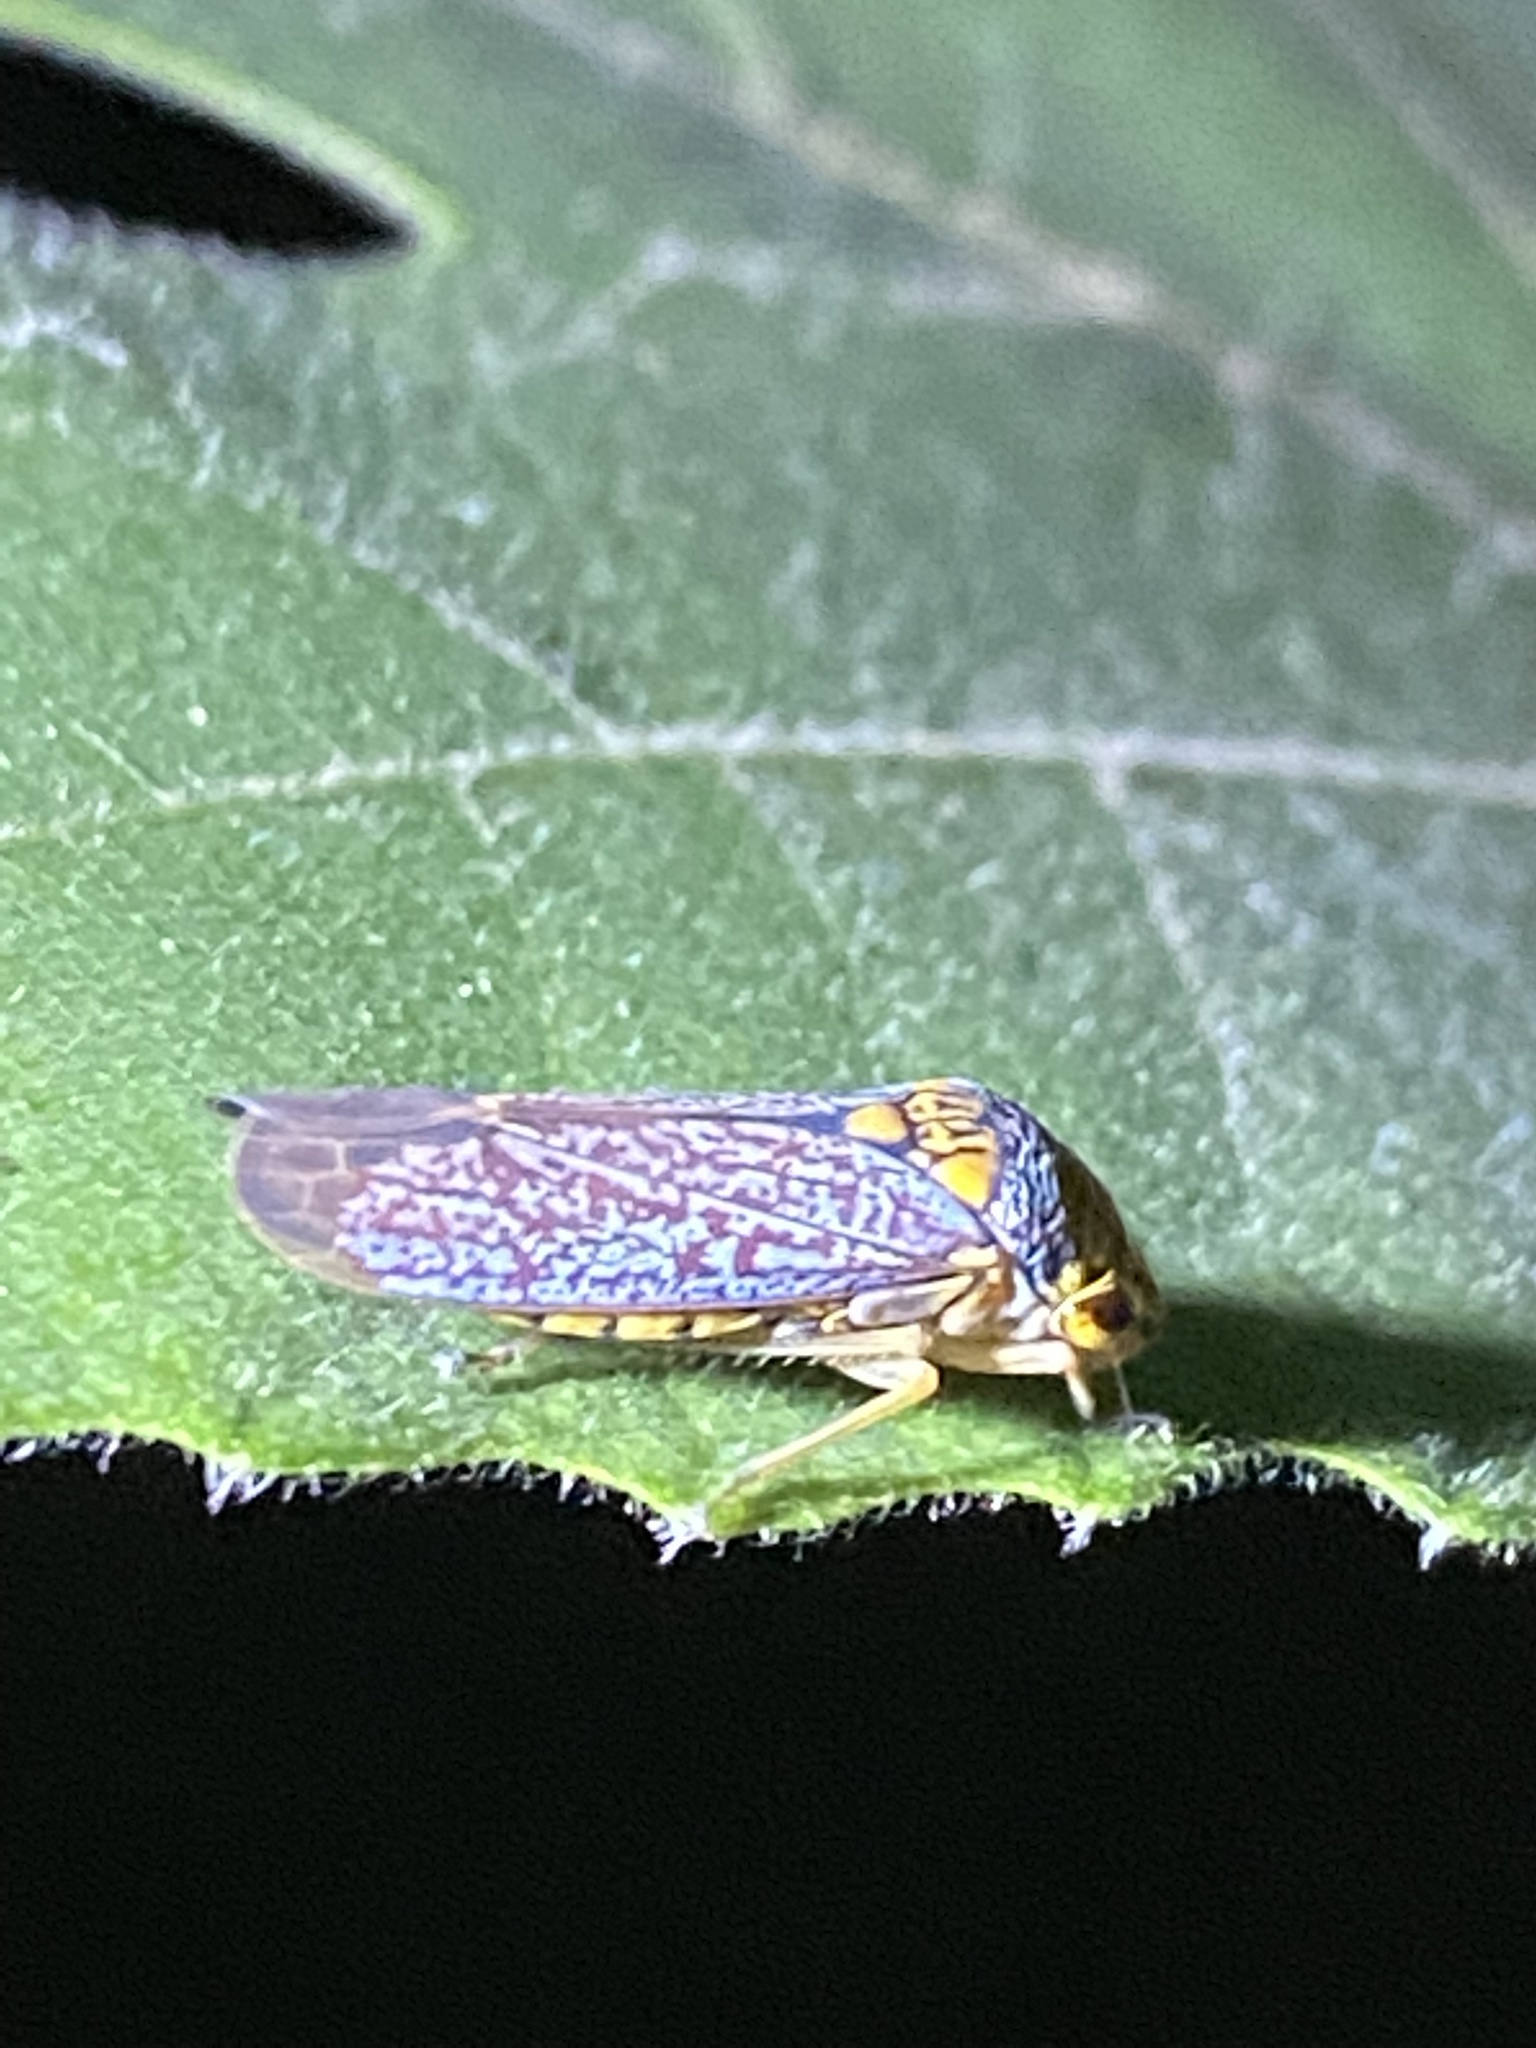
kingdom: Animalia
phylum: Arthropoda
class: Insecta
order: Hemiptera
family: Cicadellidae
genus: Oncometopia
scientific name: Oncometopia orbona
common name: Broad-headed sharpshooter
